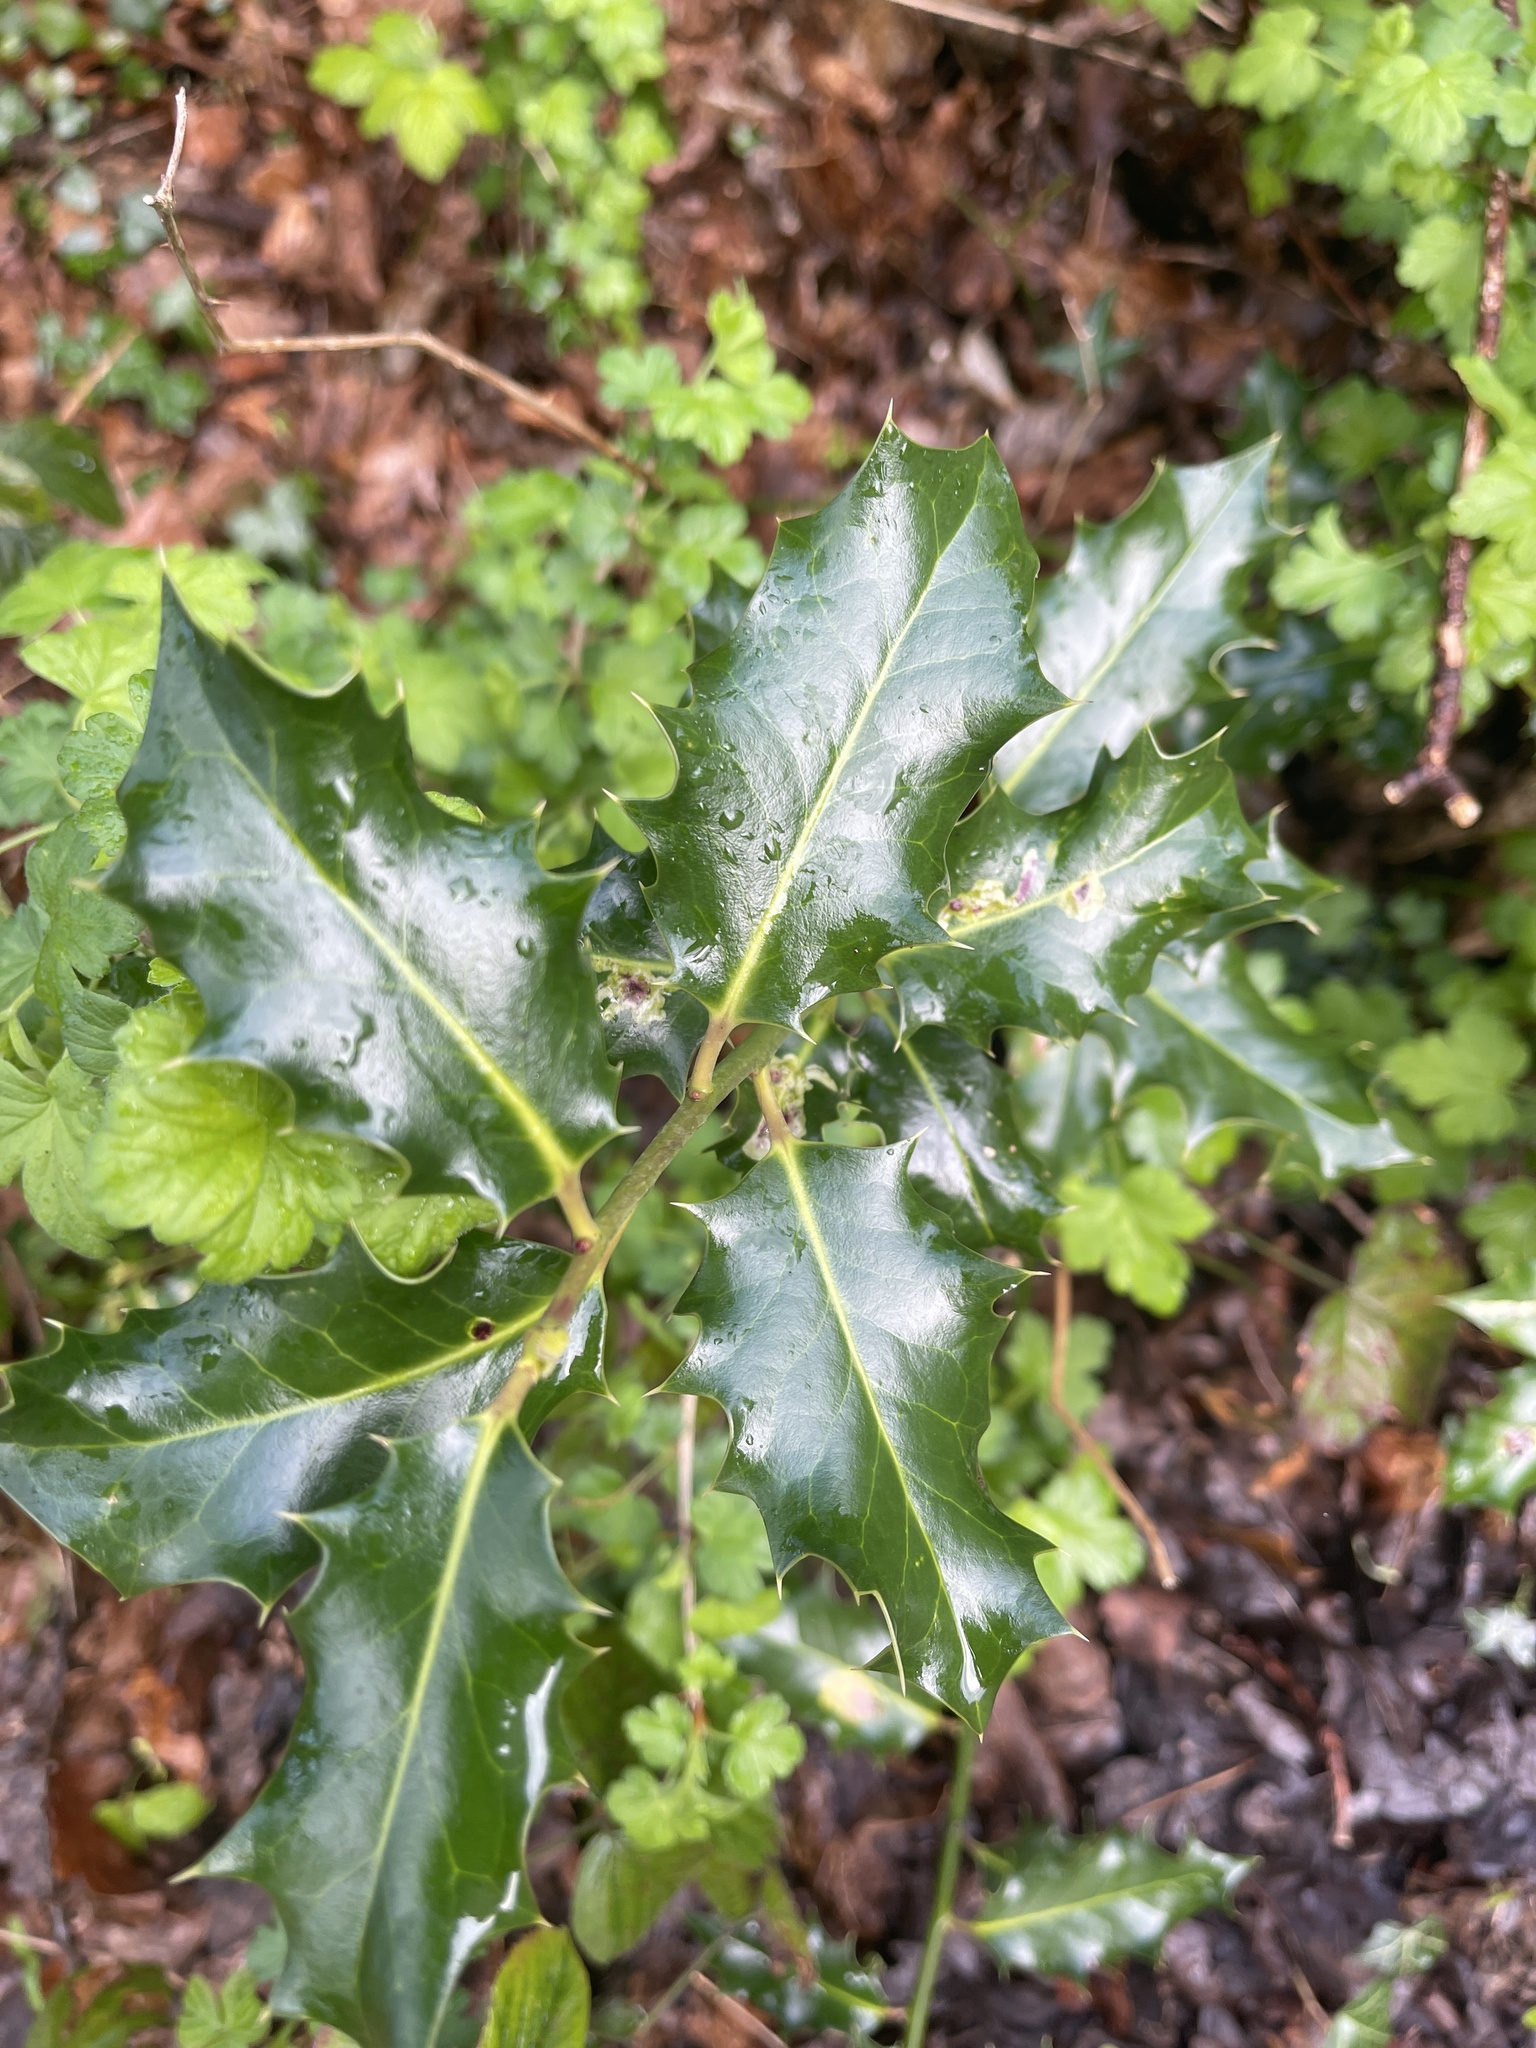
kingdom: Plantae
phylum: Tracheophyta
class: Magnoliopsida
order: Aquifoliales
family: Aquifoliaceae
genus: Ilex
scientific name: Ilex aquifolium
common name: English holly
